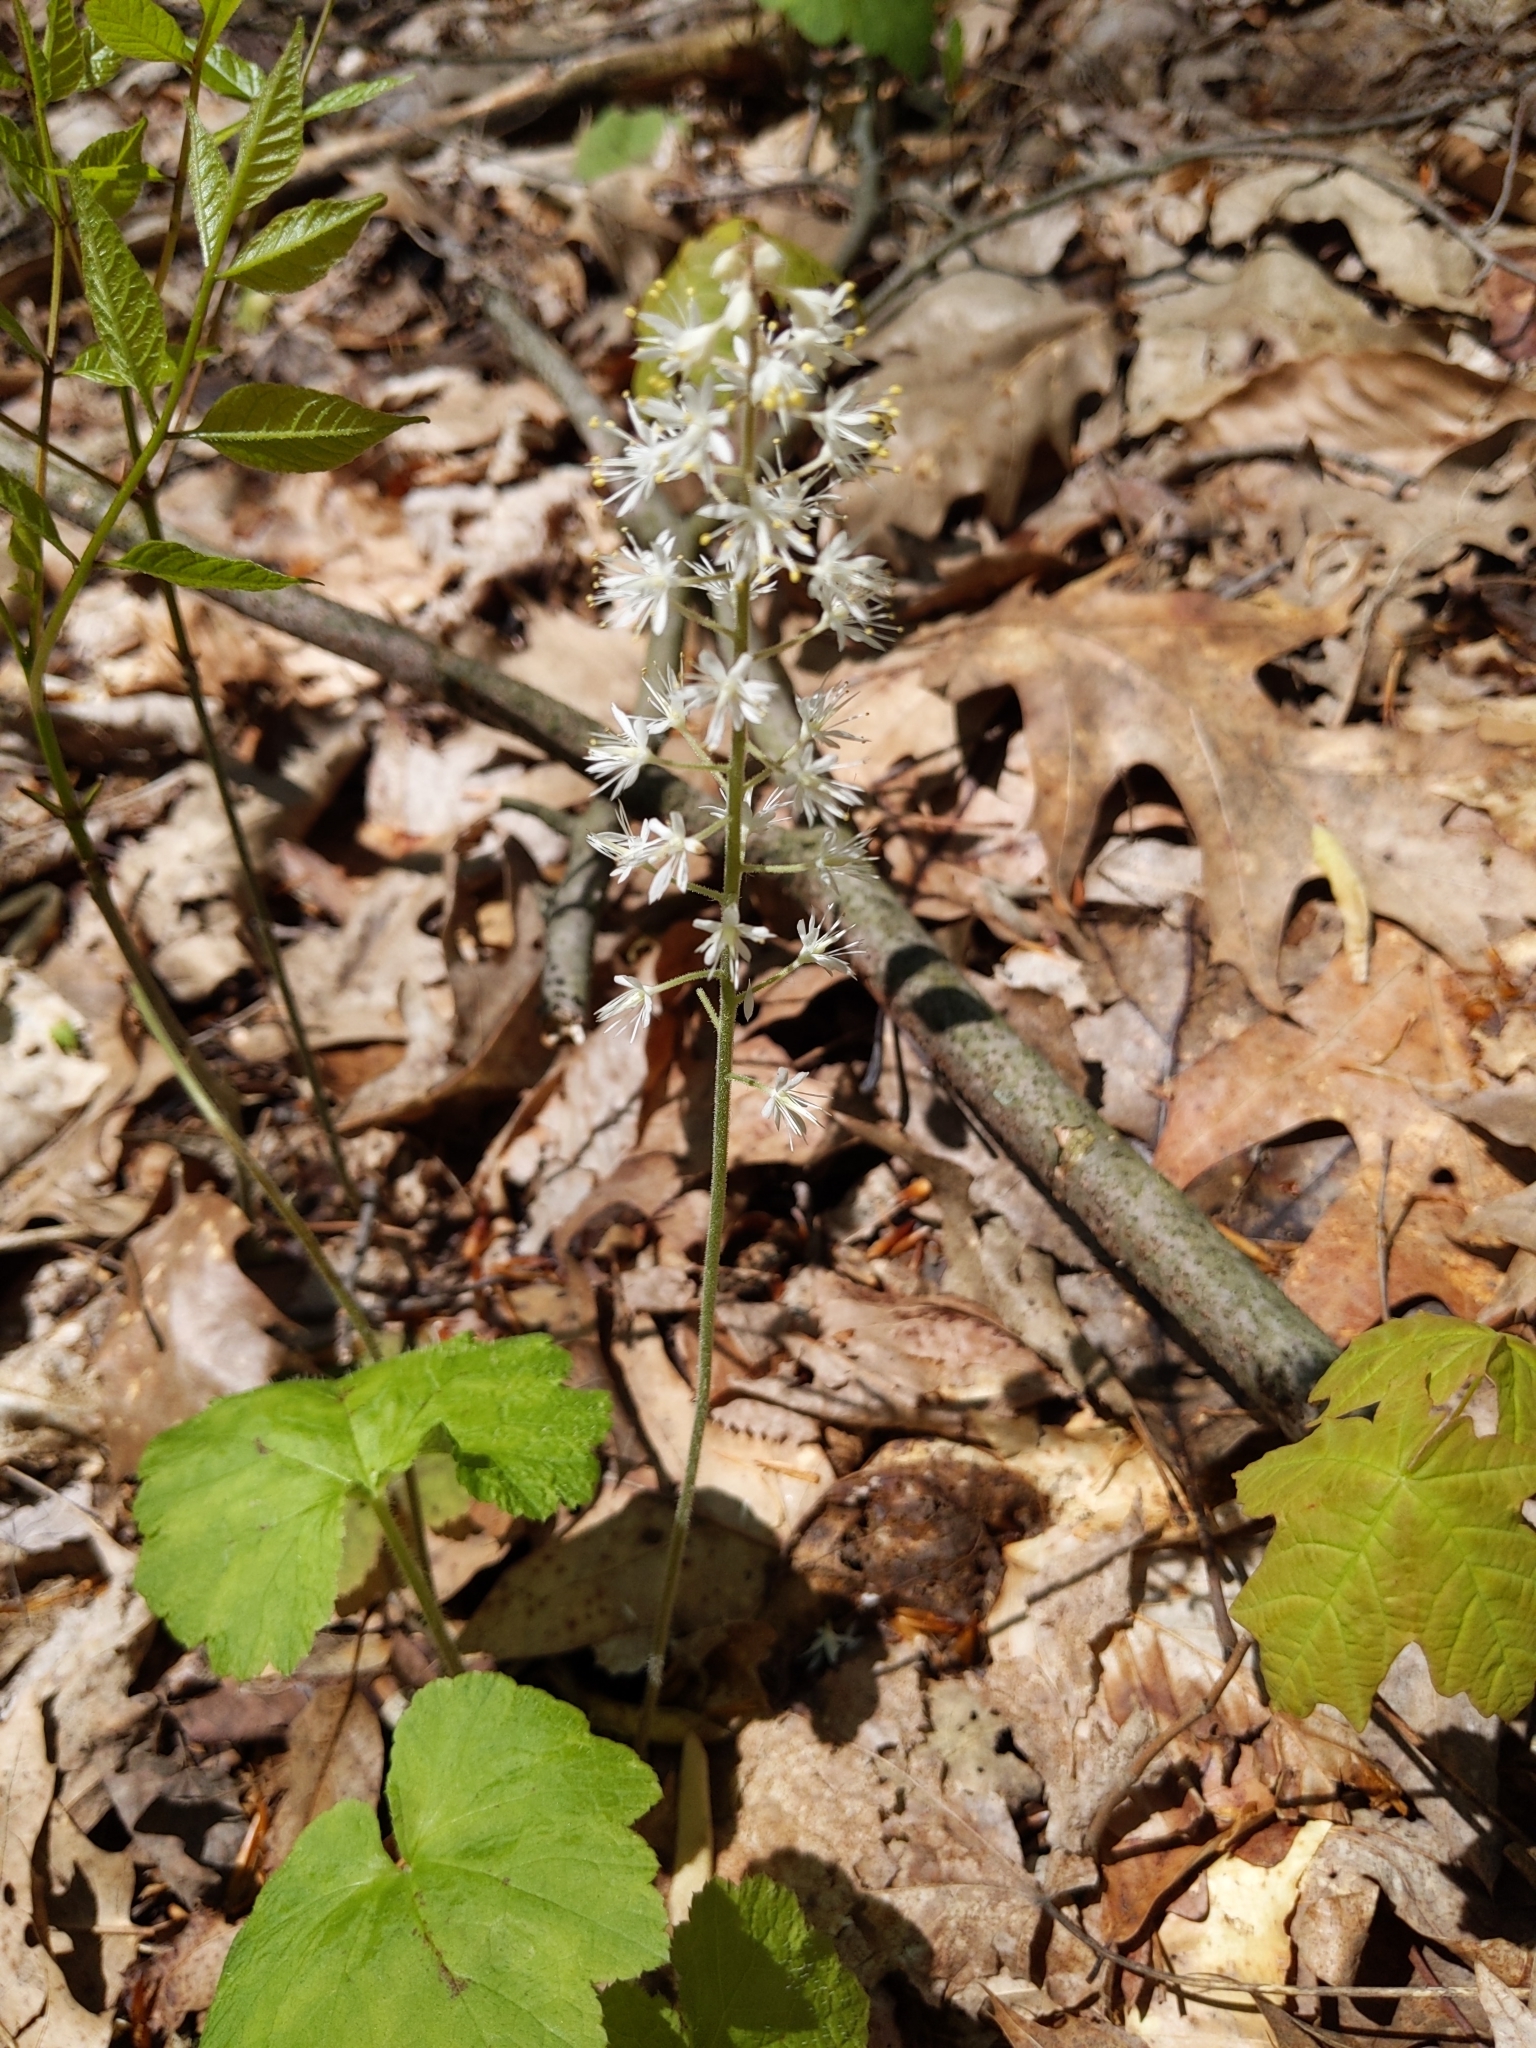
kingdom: Plantae
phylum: Tracheophyta
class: Magnoliopsida
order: Saxifragales
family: Saxifragaceae
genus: Tiarella
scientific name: Tiarella stolonifera
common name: Stoloniferous foamflower
